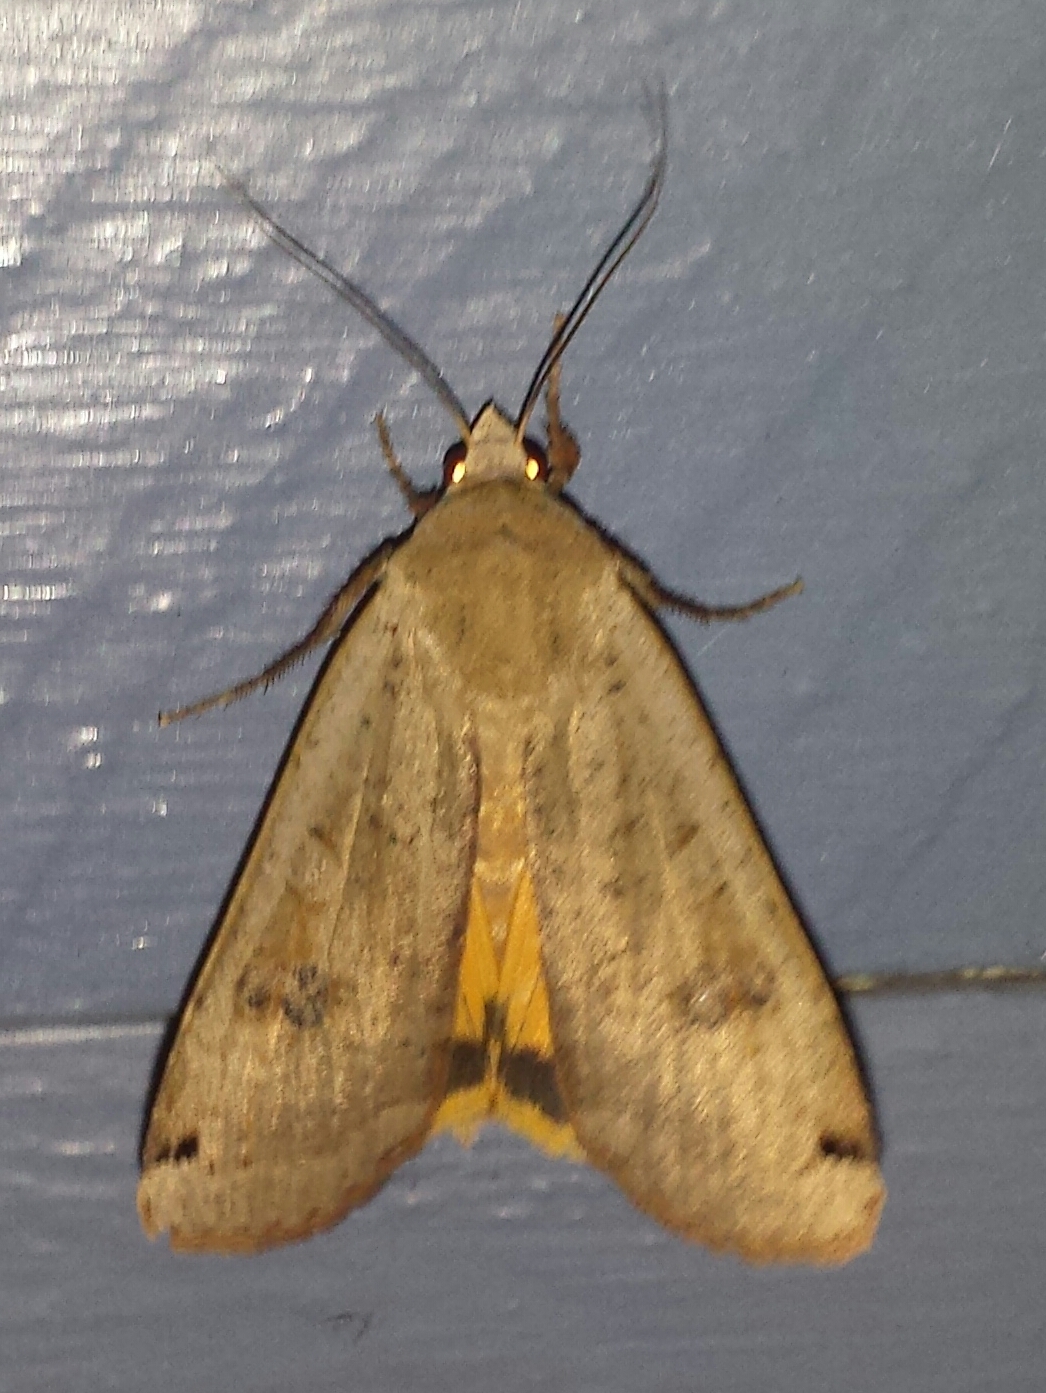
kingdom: Animalia
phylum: Arthropoda
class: Insecta
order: Lepidoptera
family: Noctuidae
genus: Noctua
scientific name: Noctua pronuba
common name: Large yellow underwing
